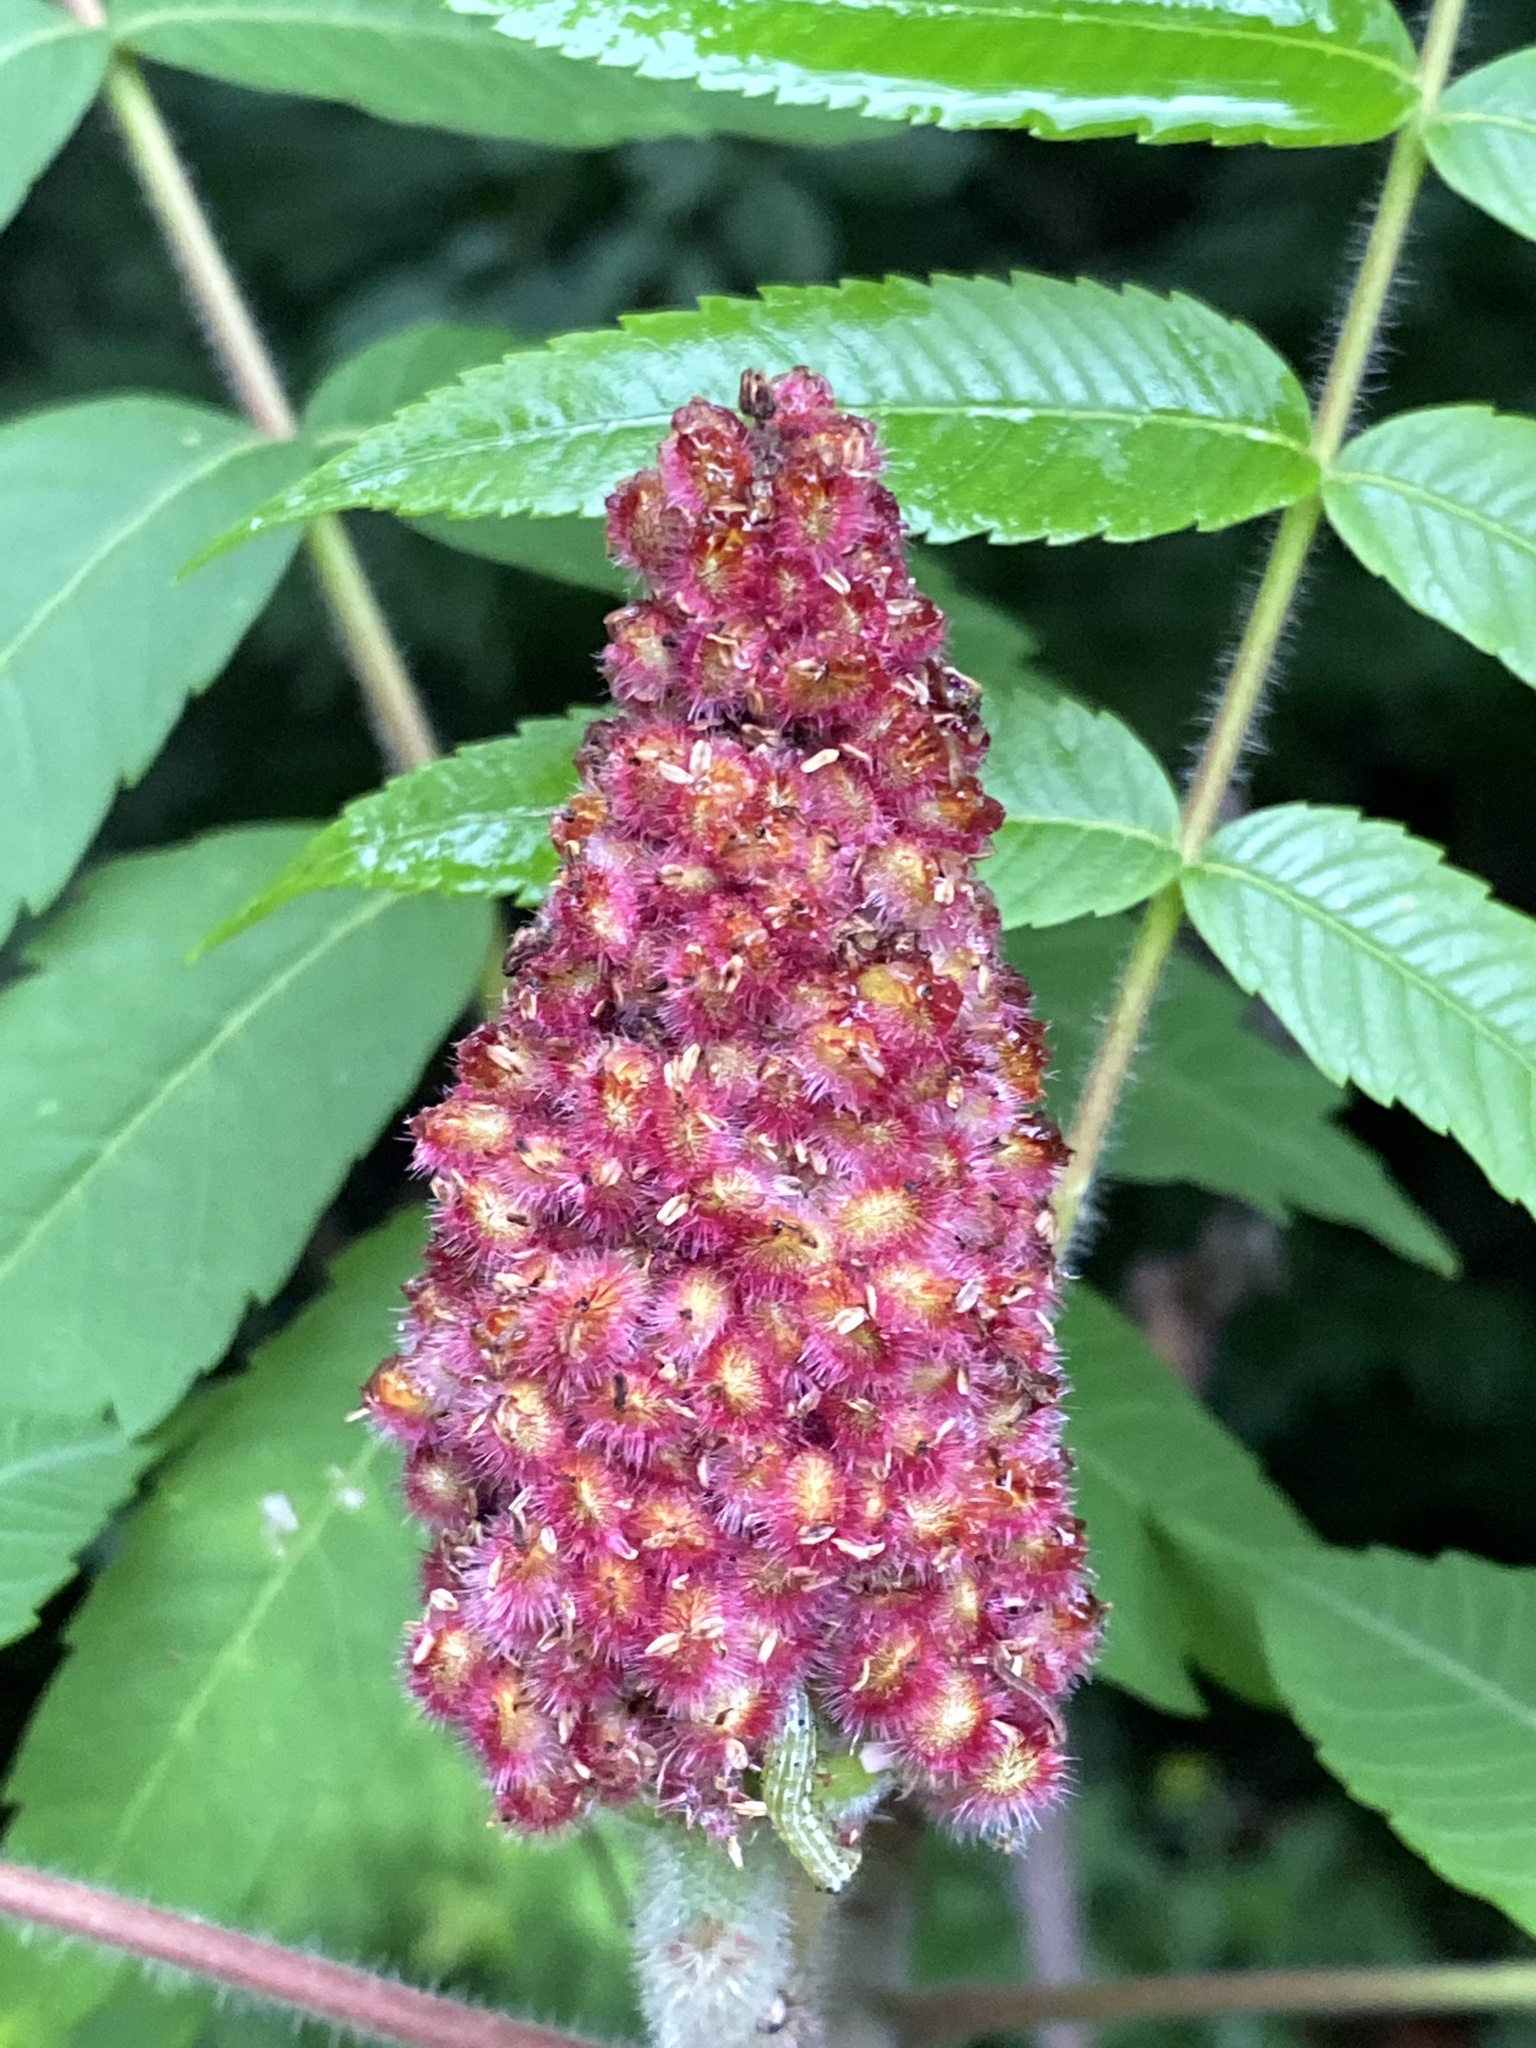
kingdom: Plantae
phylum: Tracheophyta
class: Magnoliopsida
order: Sapindales
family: Anacardiaceae
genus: Rhus
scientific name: Rhus typhina
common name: Staghorn sumac
